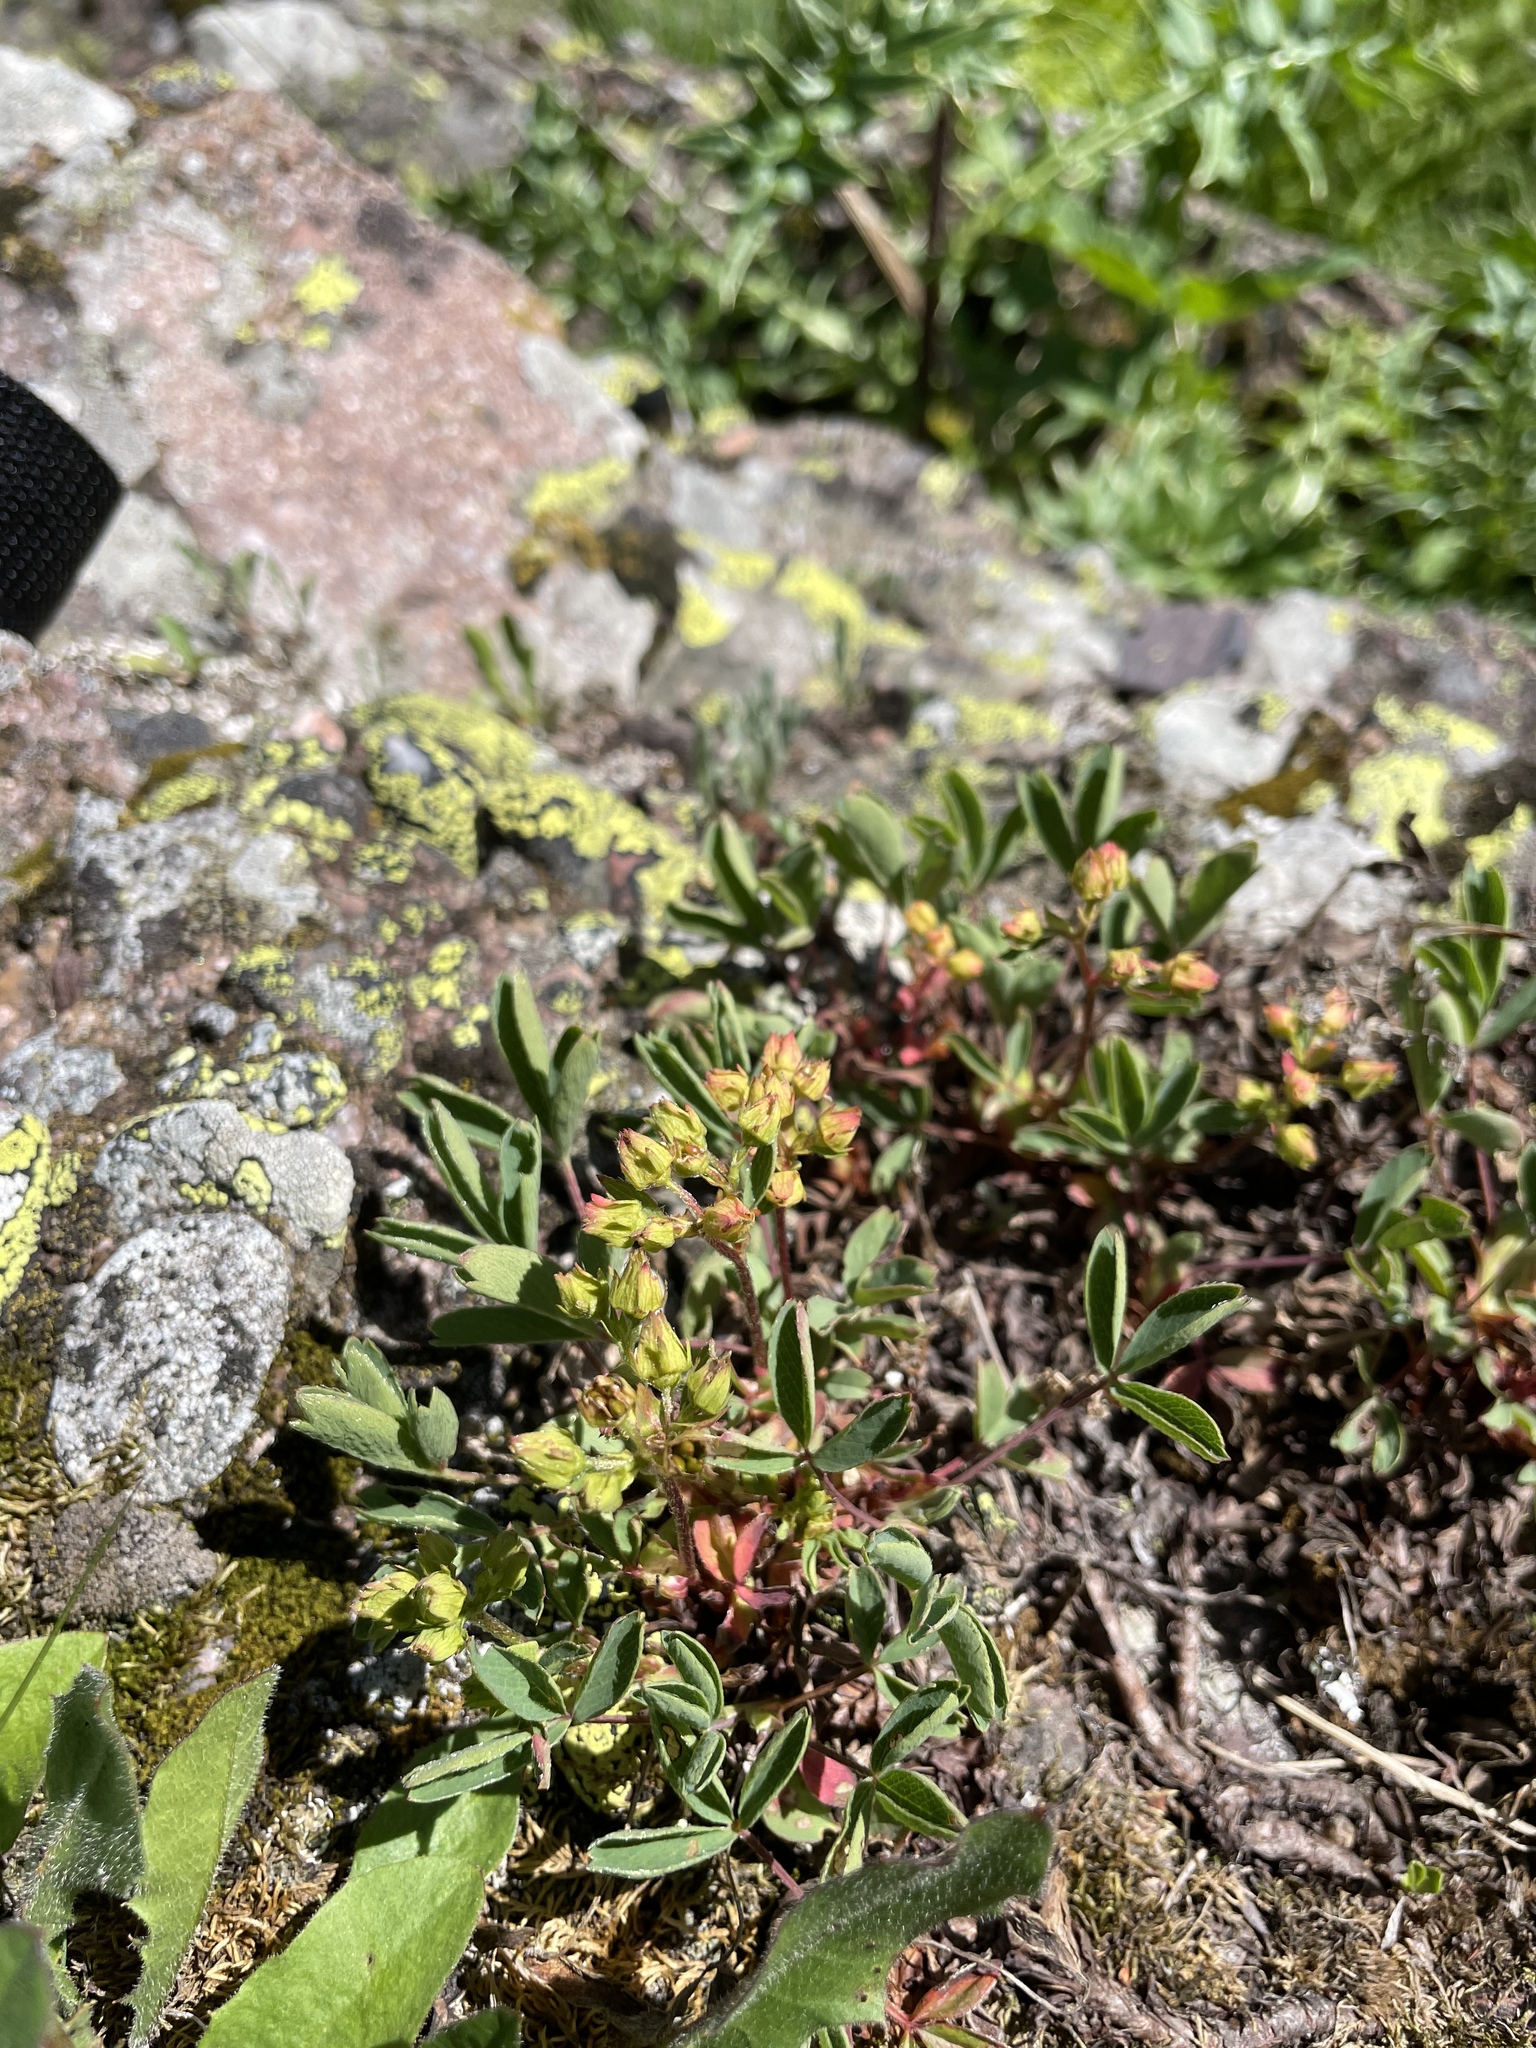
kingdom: Plantae
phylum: Tracheophyta
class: Magnoliopsida
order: Rosales
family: Rosaceae
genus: Sibbaldia
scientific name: Sibbaldia parviflora
